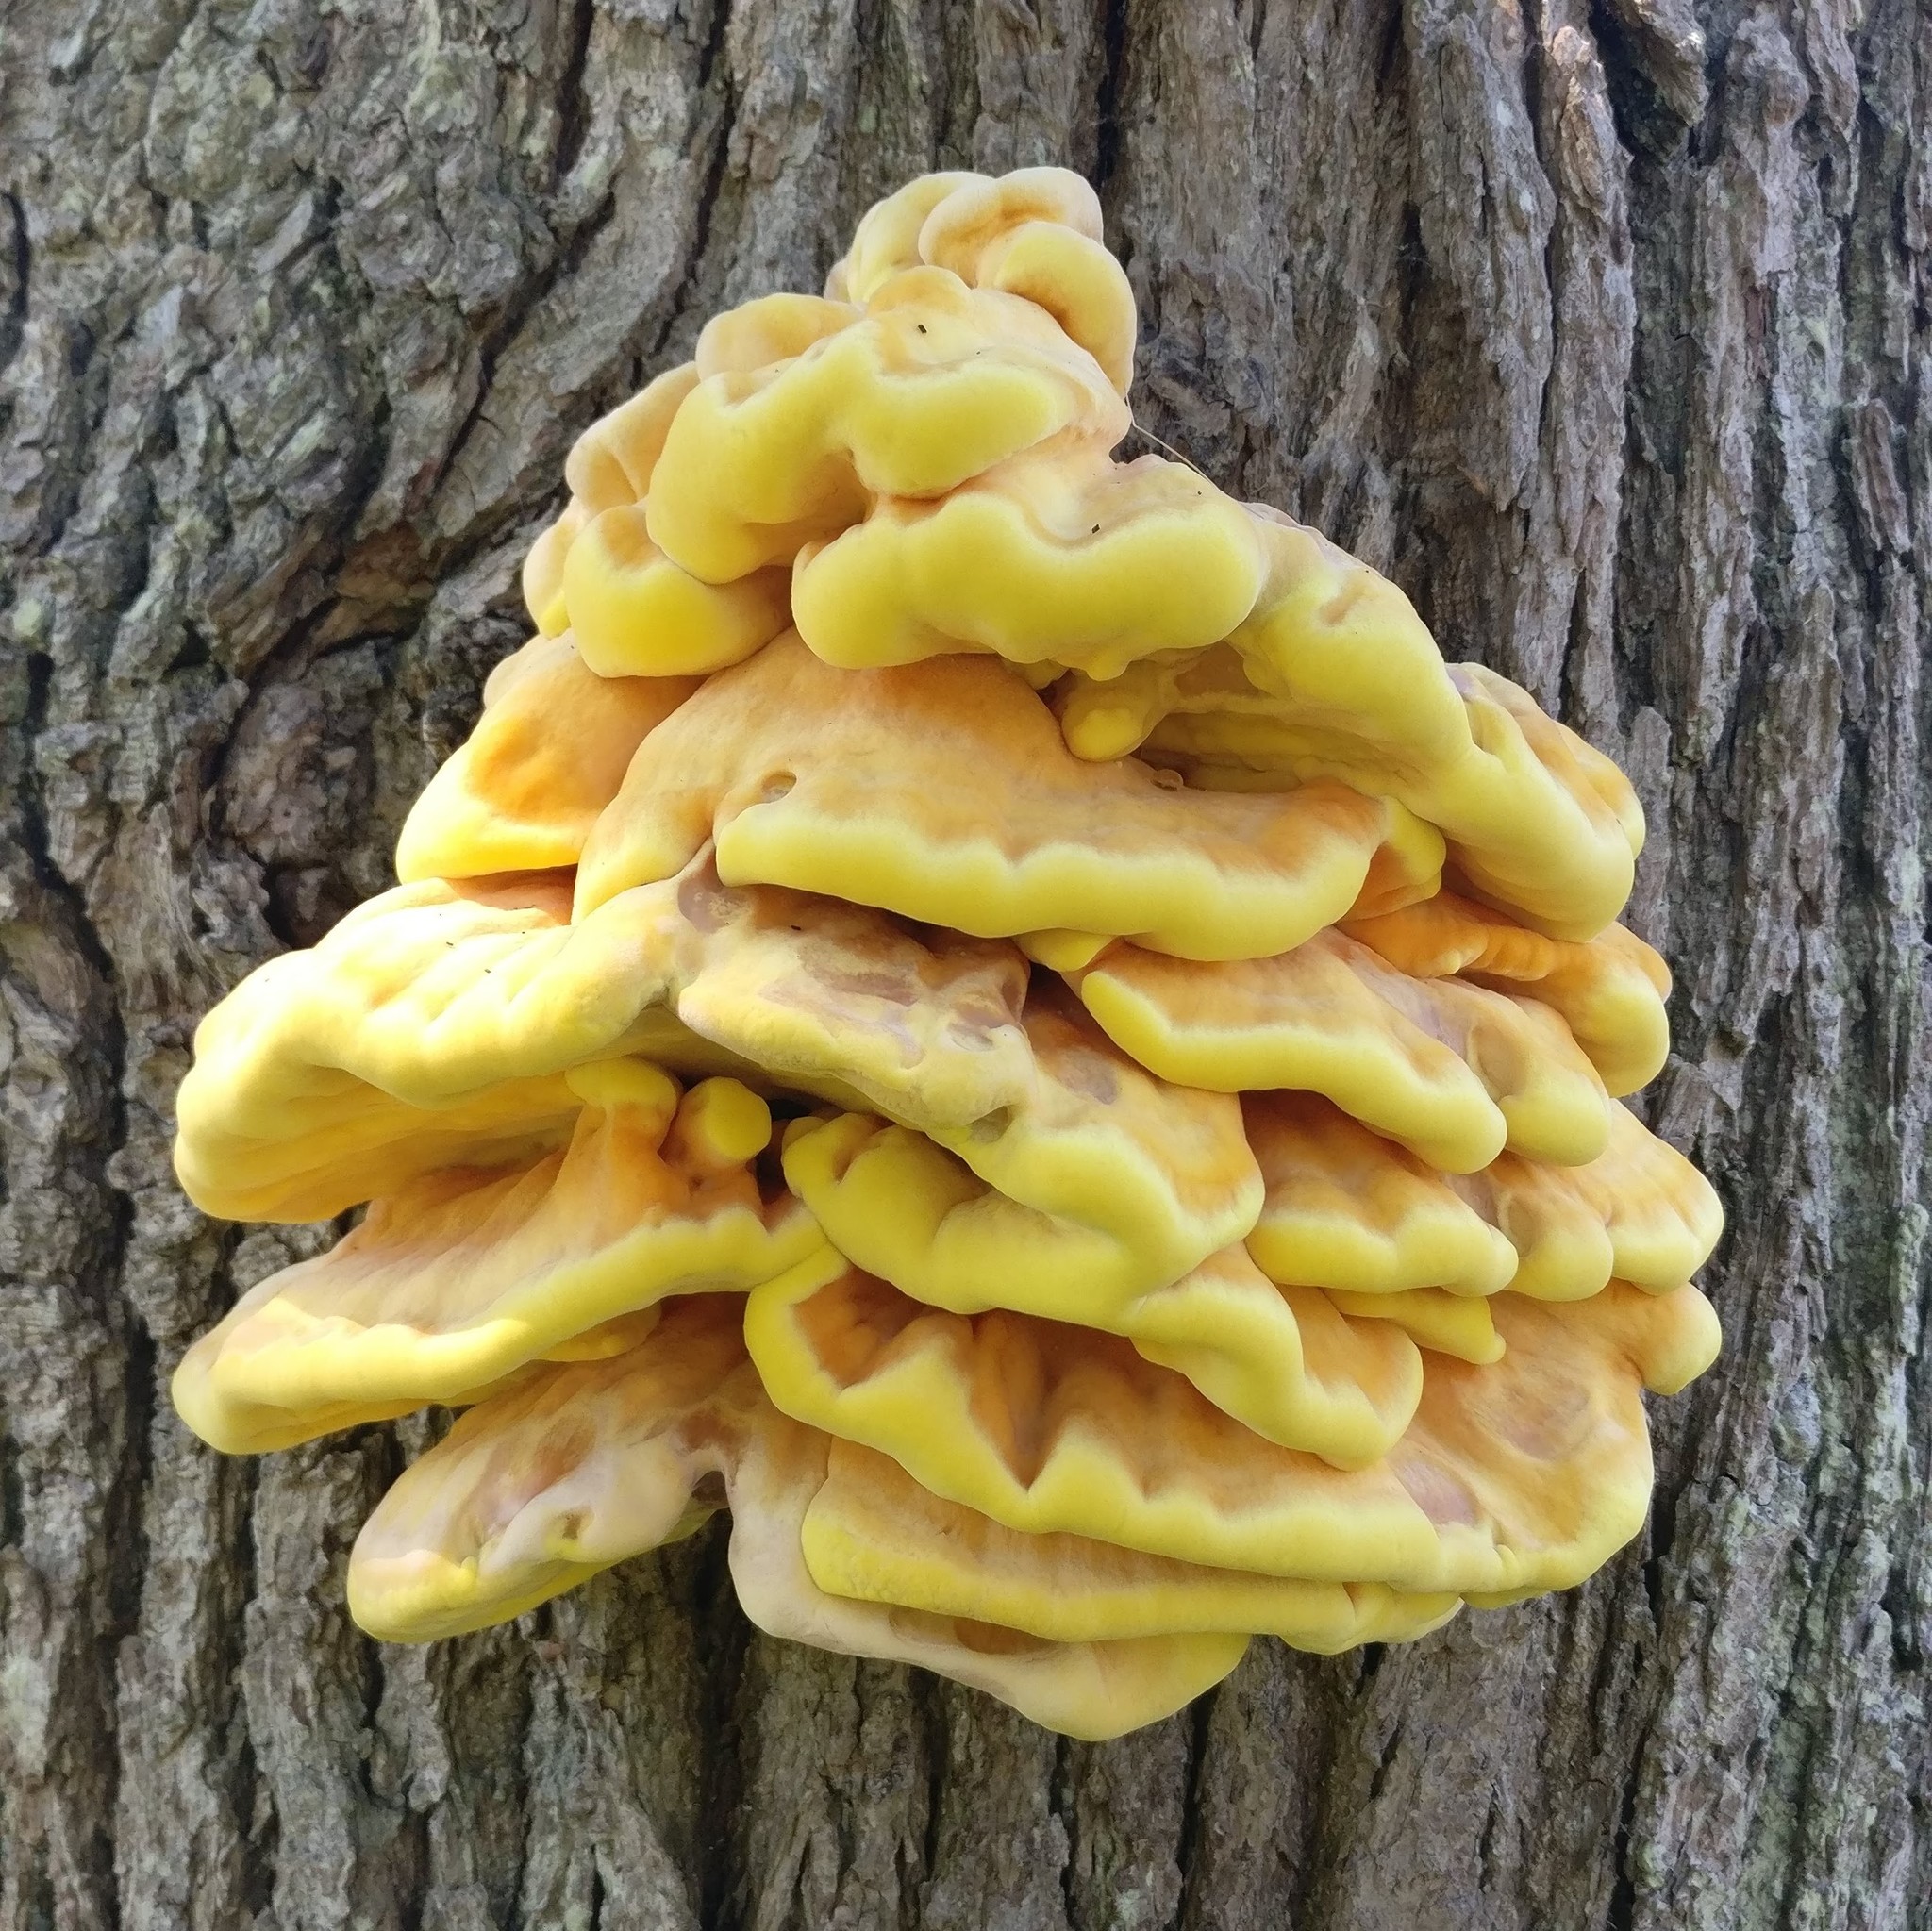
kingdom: Fungi
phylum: Basidiomycota
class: Agaricomycetes
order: Polyporales
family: Laetiporaceae
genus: Laetiporus
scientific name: Laetiporus sulphureus
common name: Chicken of the woods
